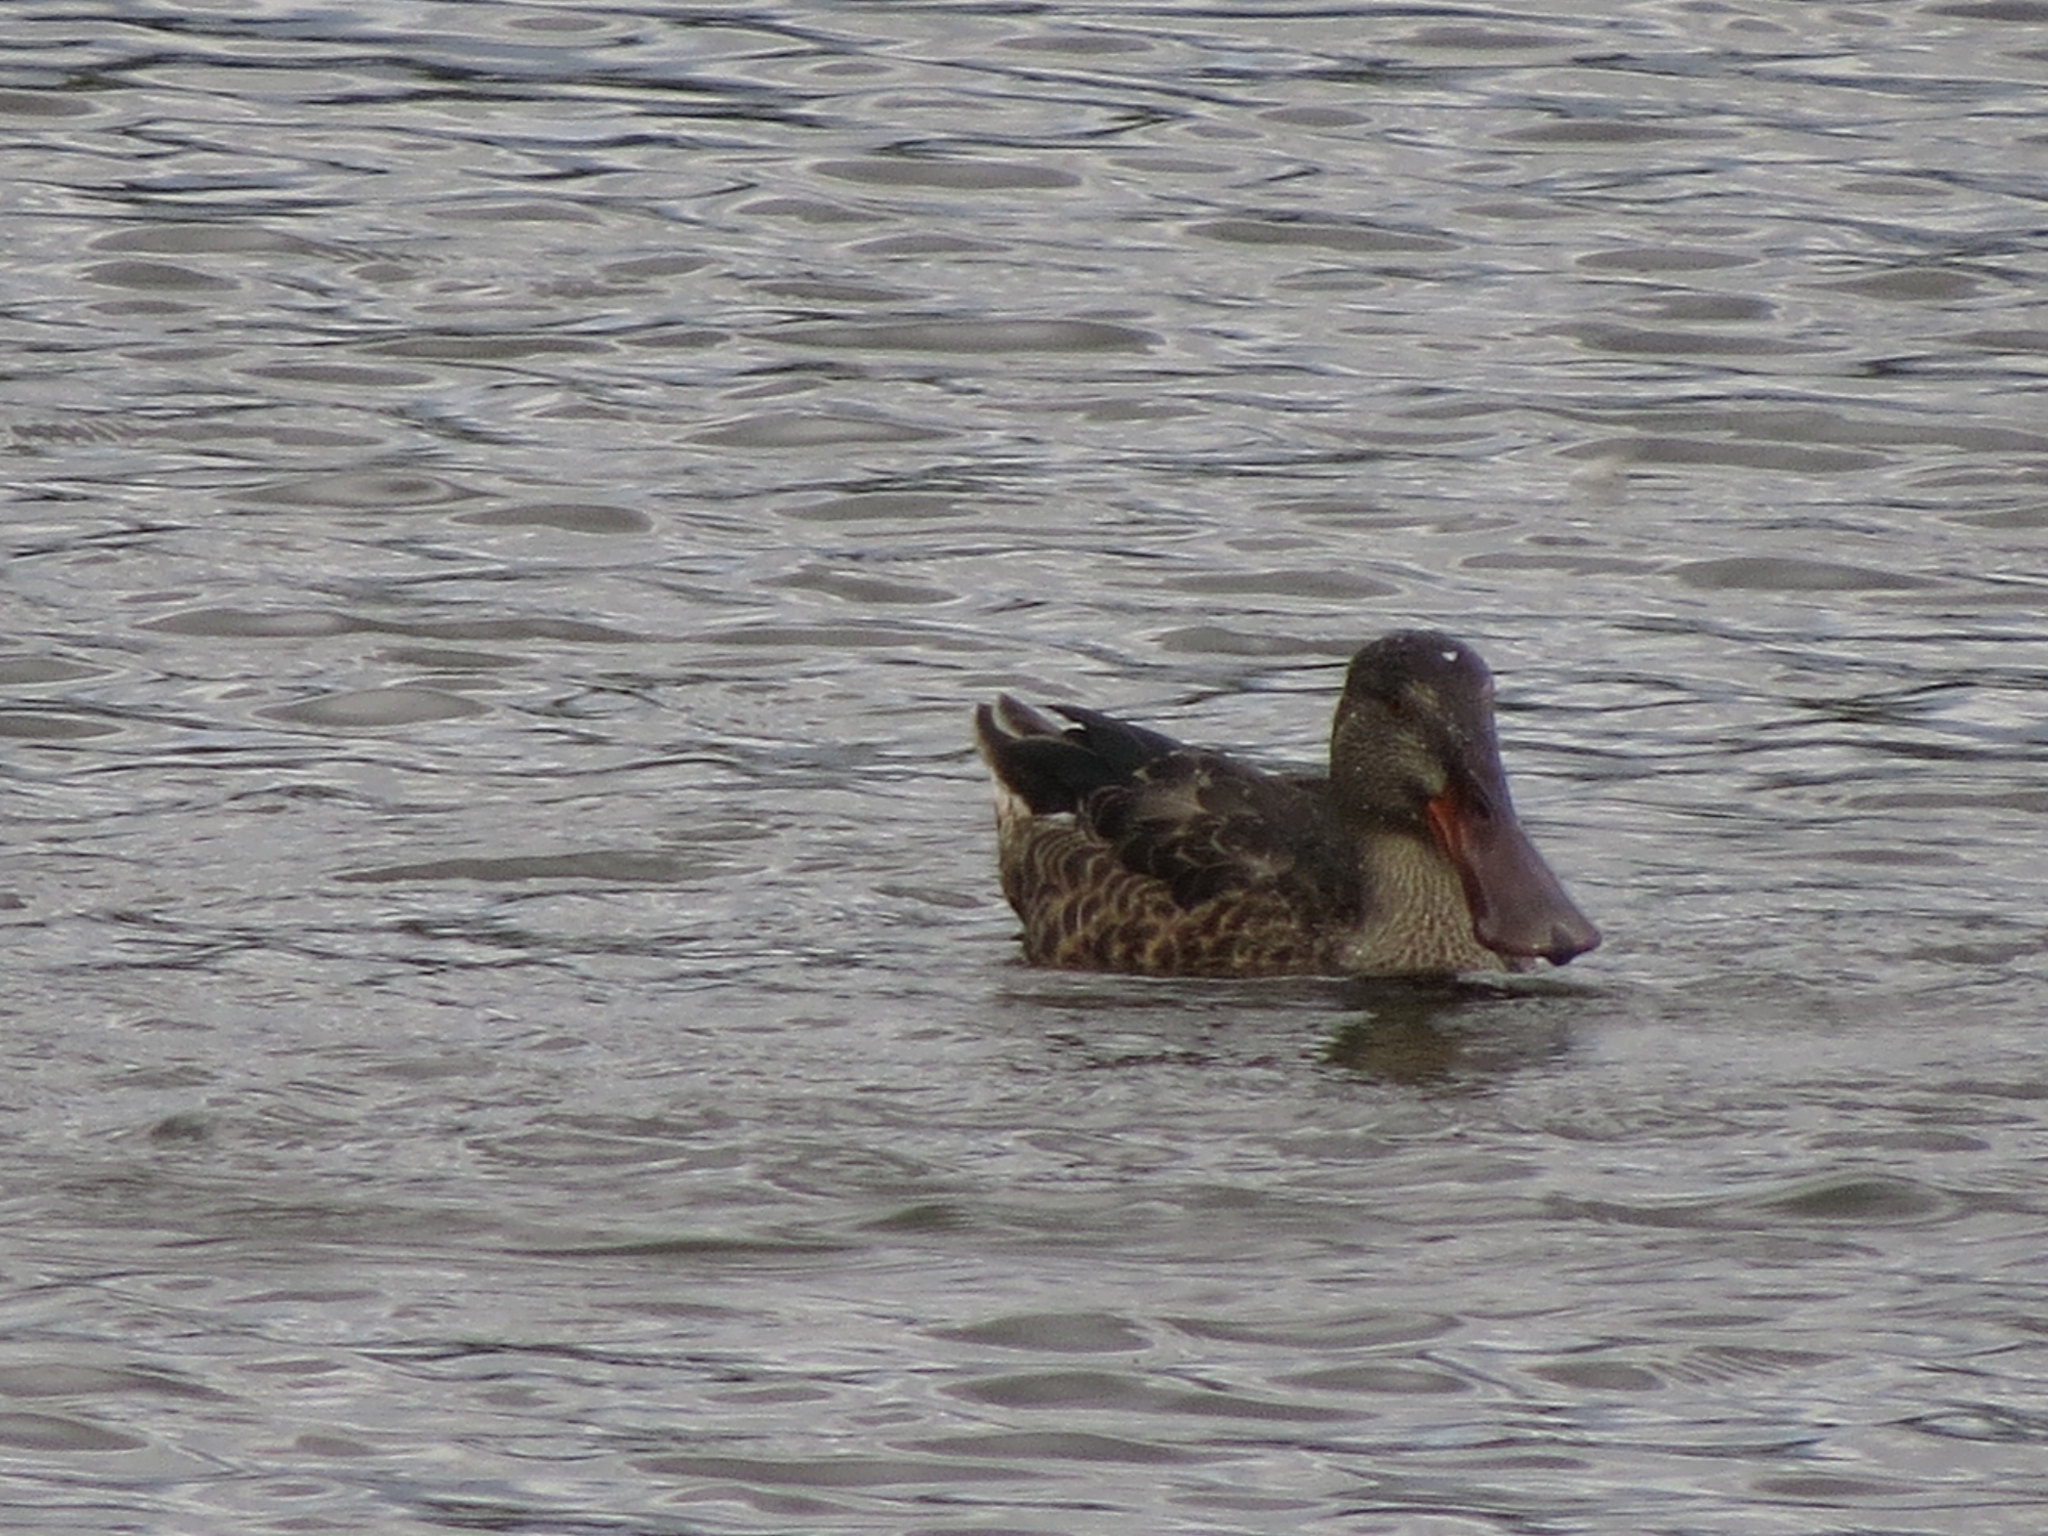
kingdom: Animalia
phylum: Chordata
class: Aves
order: Anseriformes
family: Anatidae
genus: Spatula
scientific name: Spatula clypeata
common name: Northern shoveler
